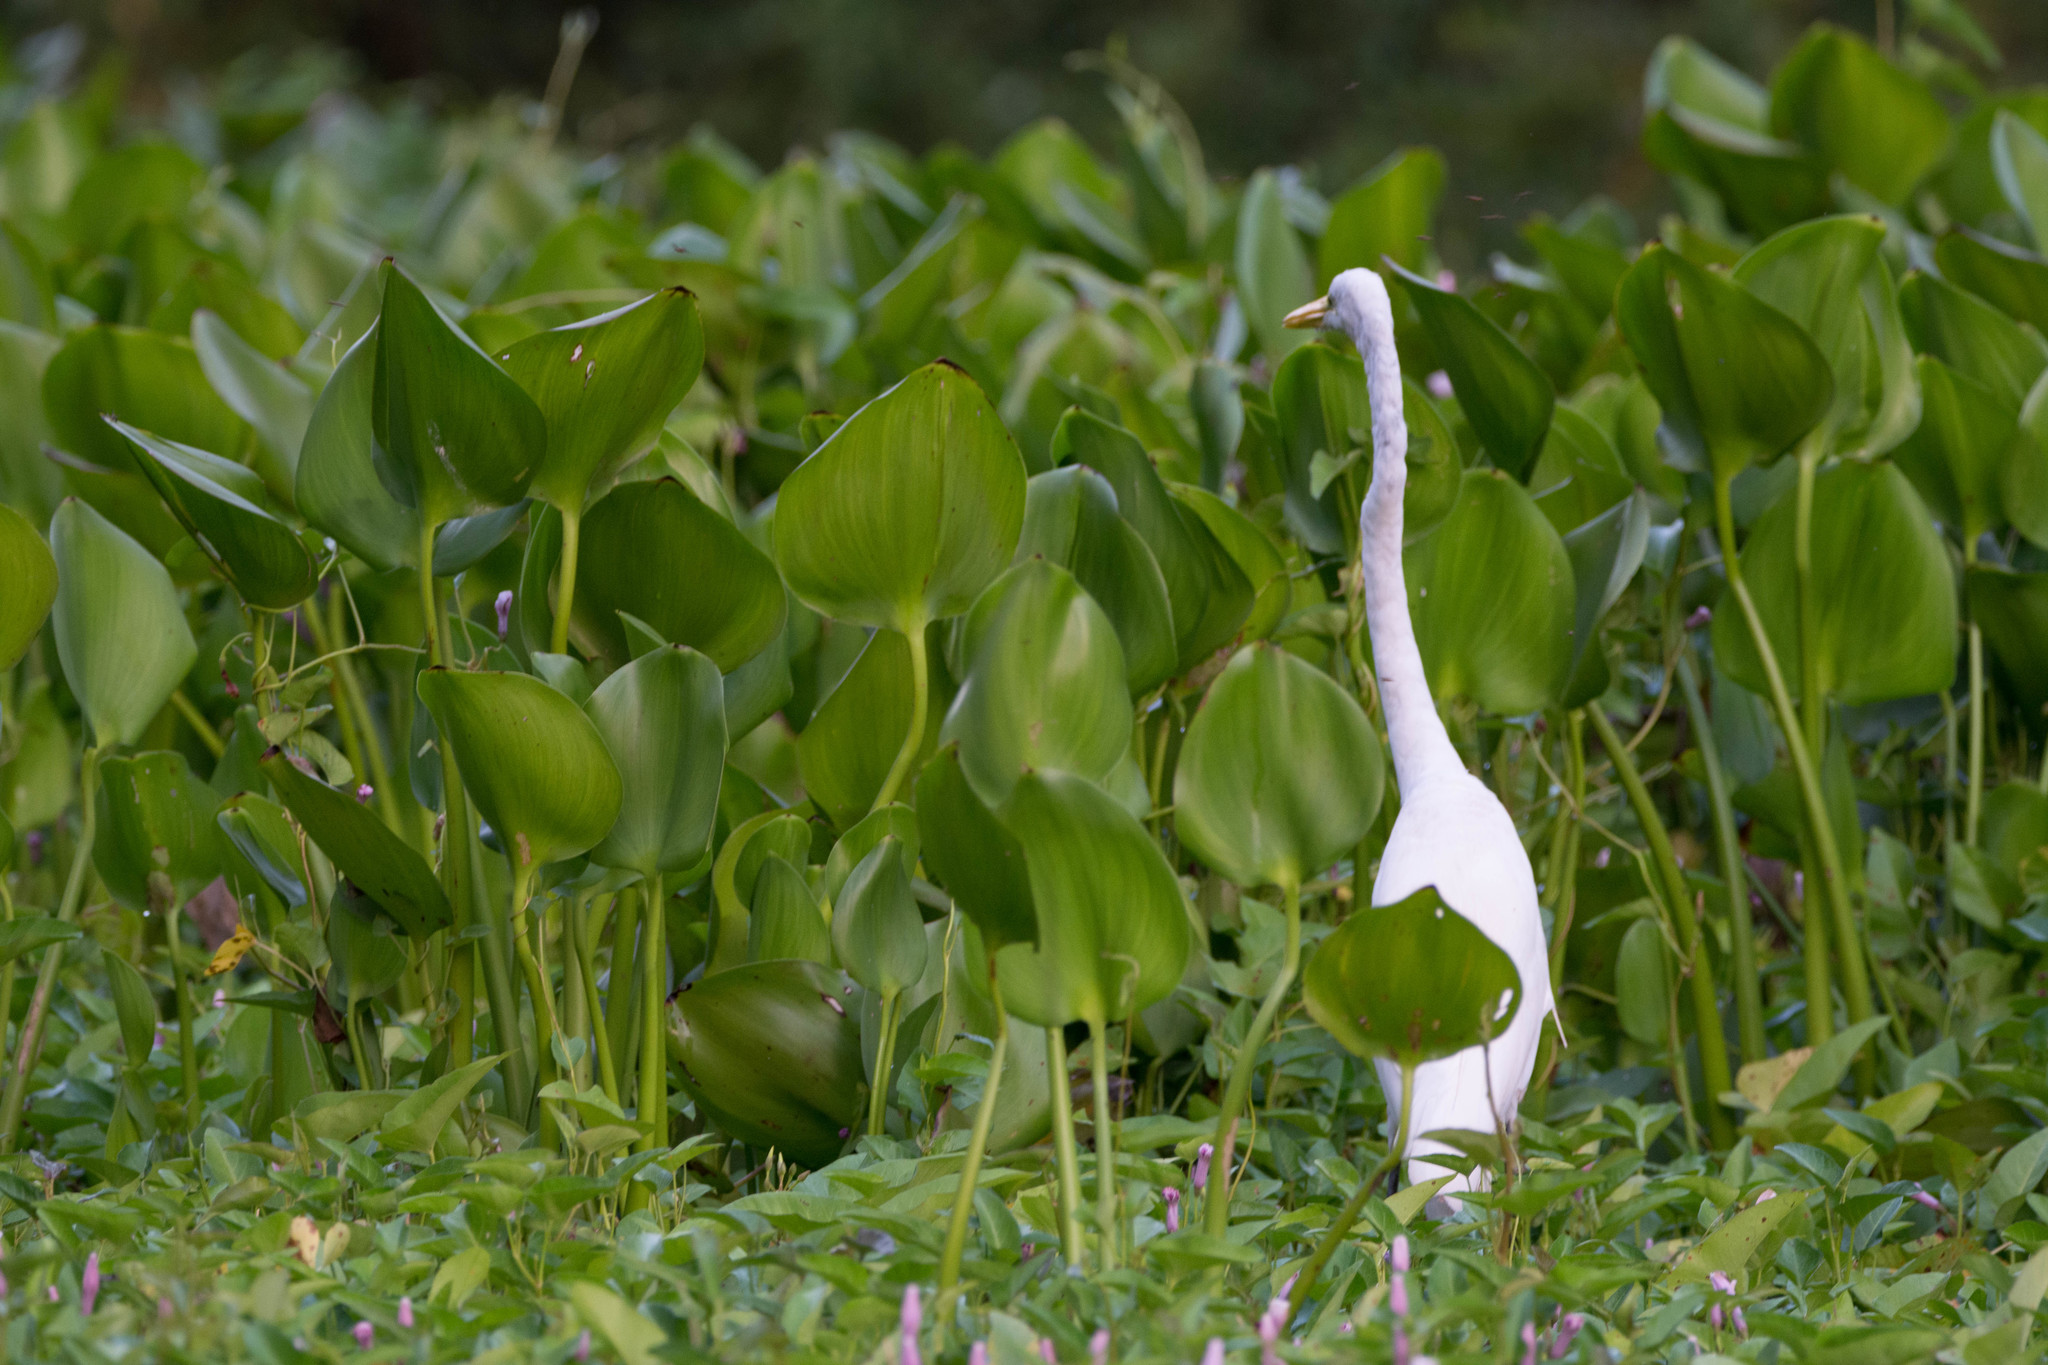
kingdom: Animalia
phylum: Chordata
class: Aves
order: Pelecaniformes
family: Ardeidae
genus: Ardea
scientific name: Ardea alba
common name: Great egret
